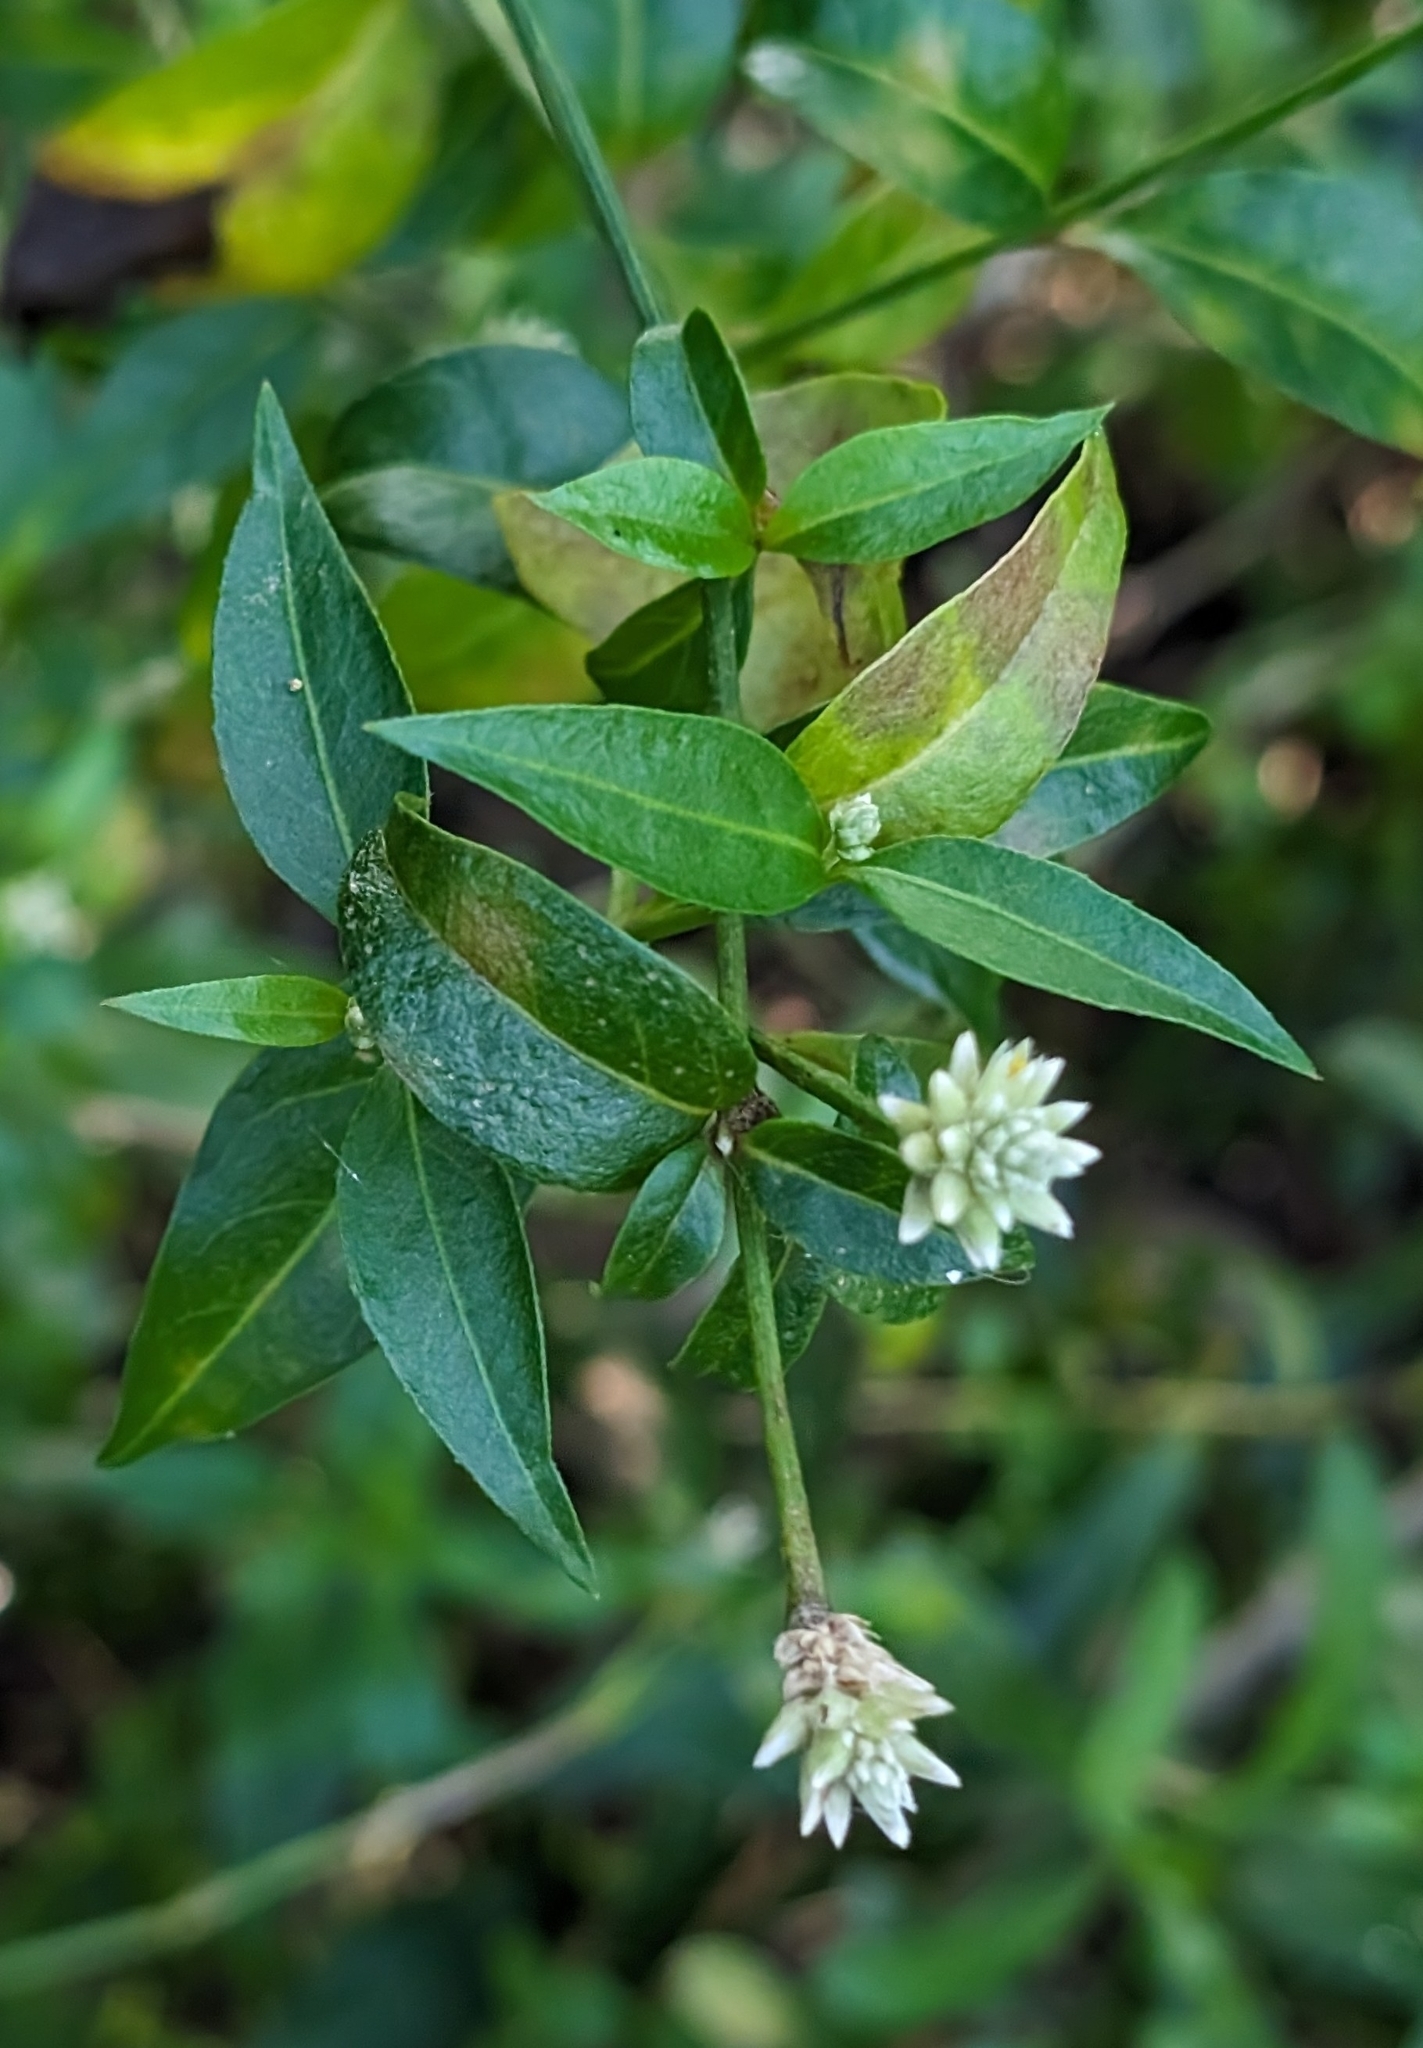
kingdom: Plantae
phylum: Tracheophyta
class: Magnoliopsida
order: Caryophyllales
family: Amaranthaceae
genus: Alternanthera
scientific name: Alternanthera flavescens
